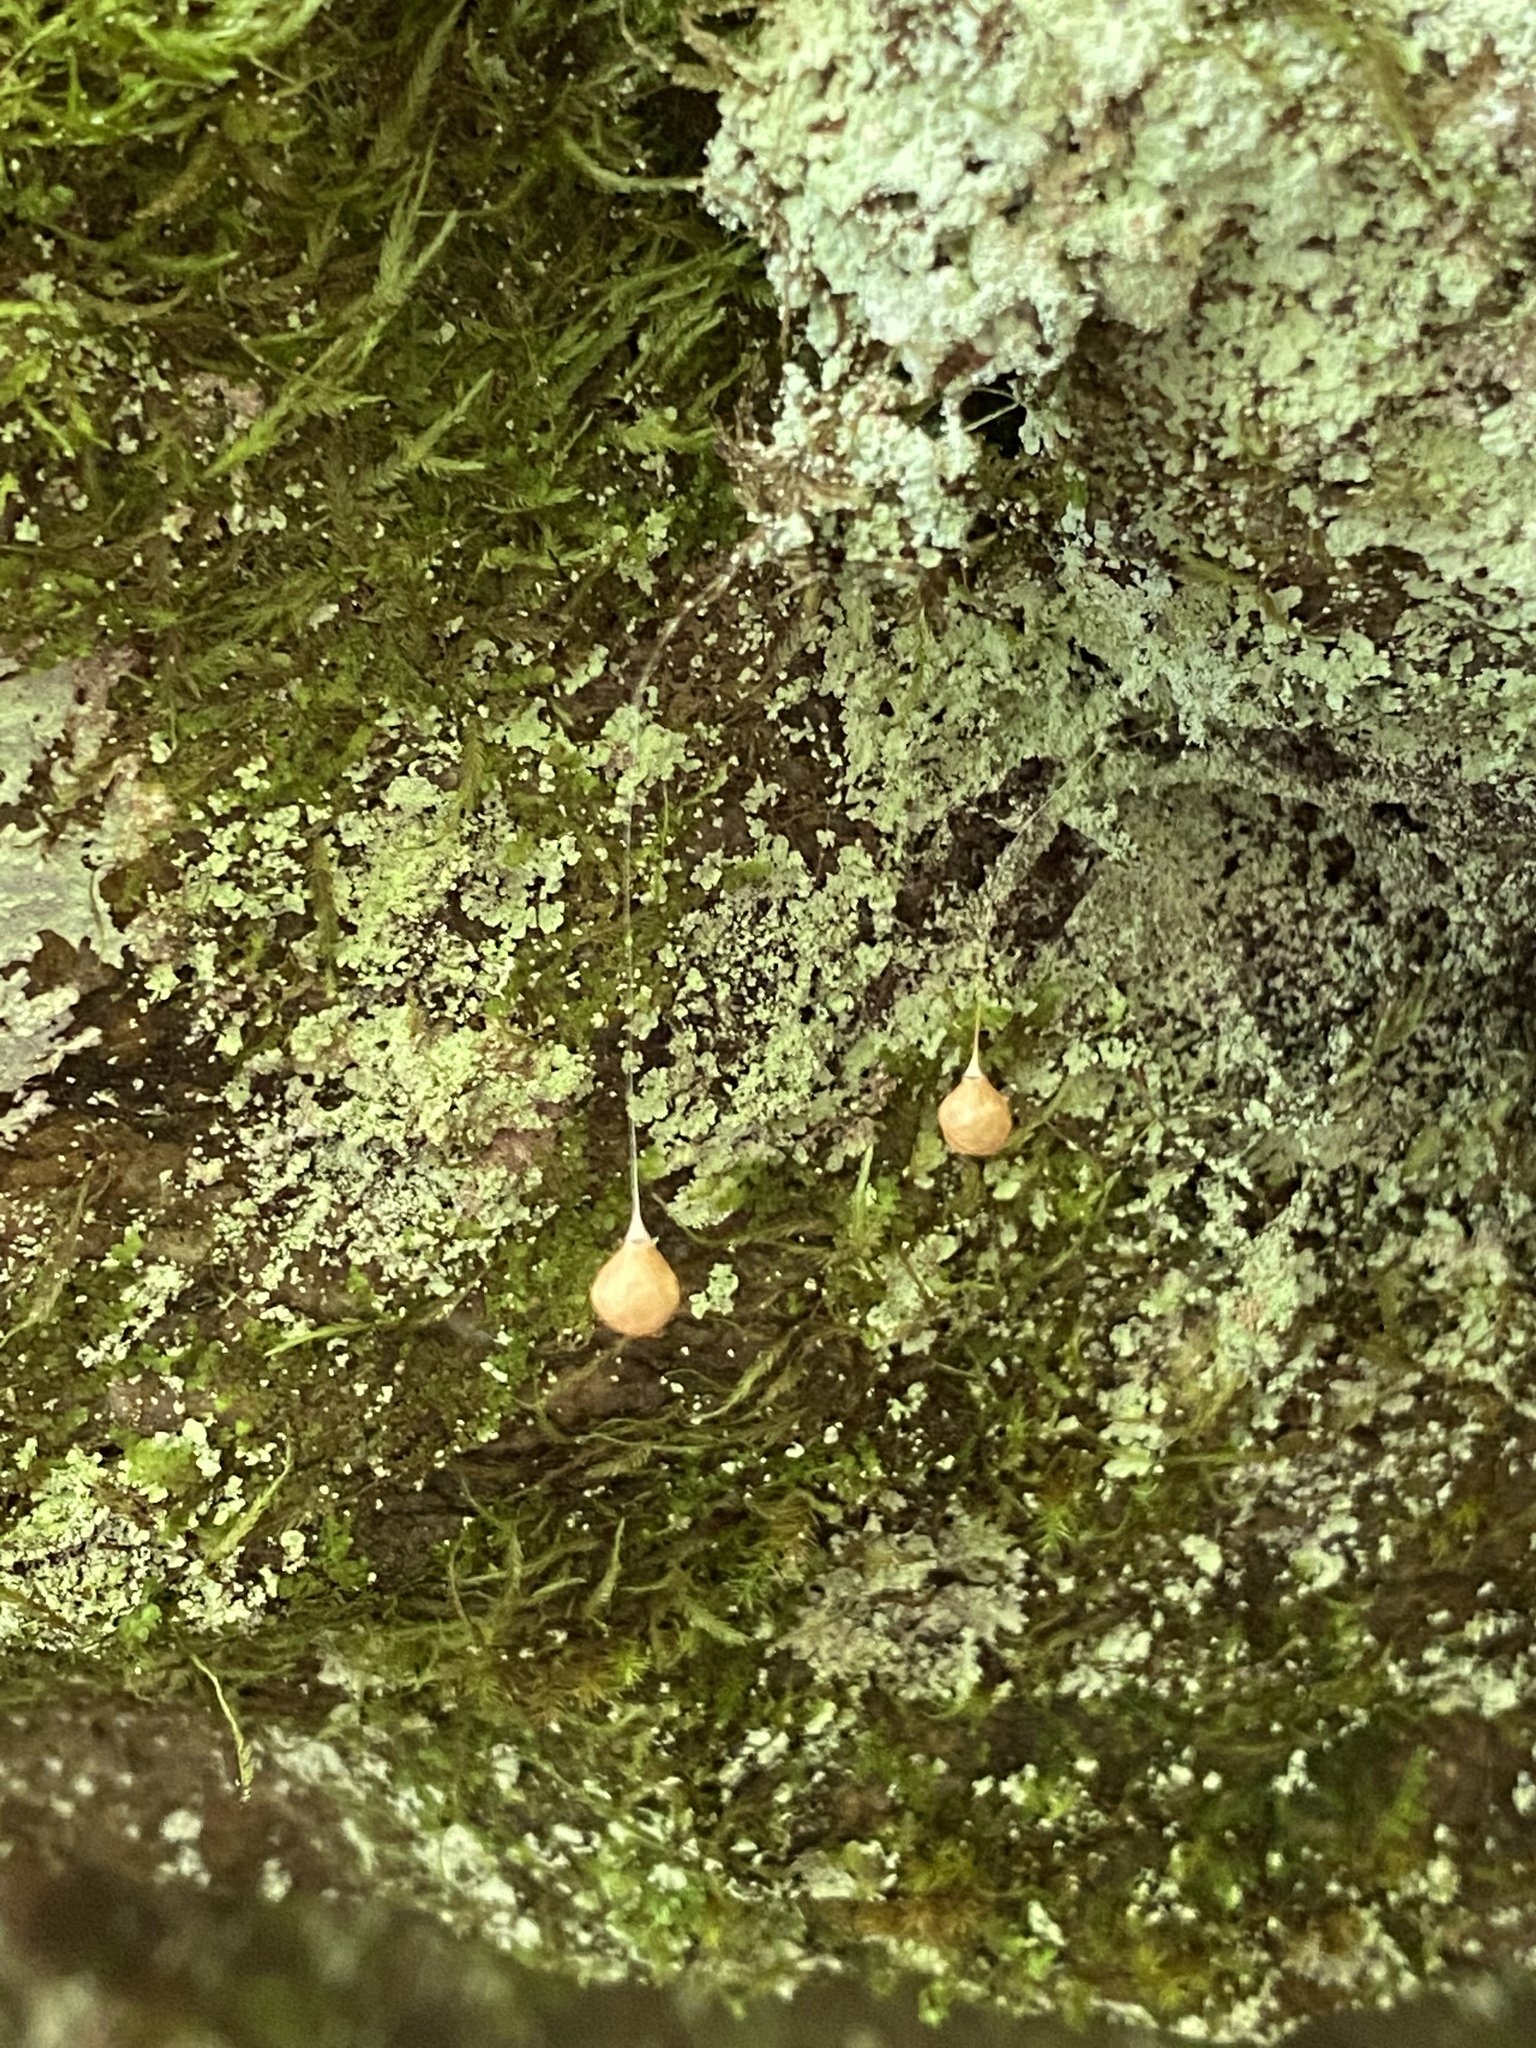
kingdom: Animalia
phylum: Arthropoda
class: Arachnida
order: Araneae
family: Theridiosomatidae
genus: Theridiosoma
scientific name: Theridiosoma gemmosum
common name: Ray spider
